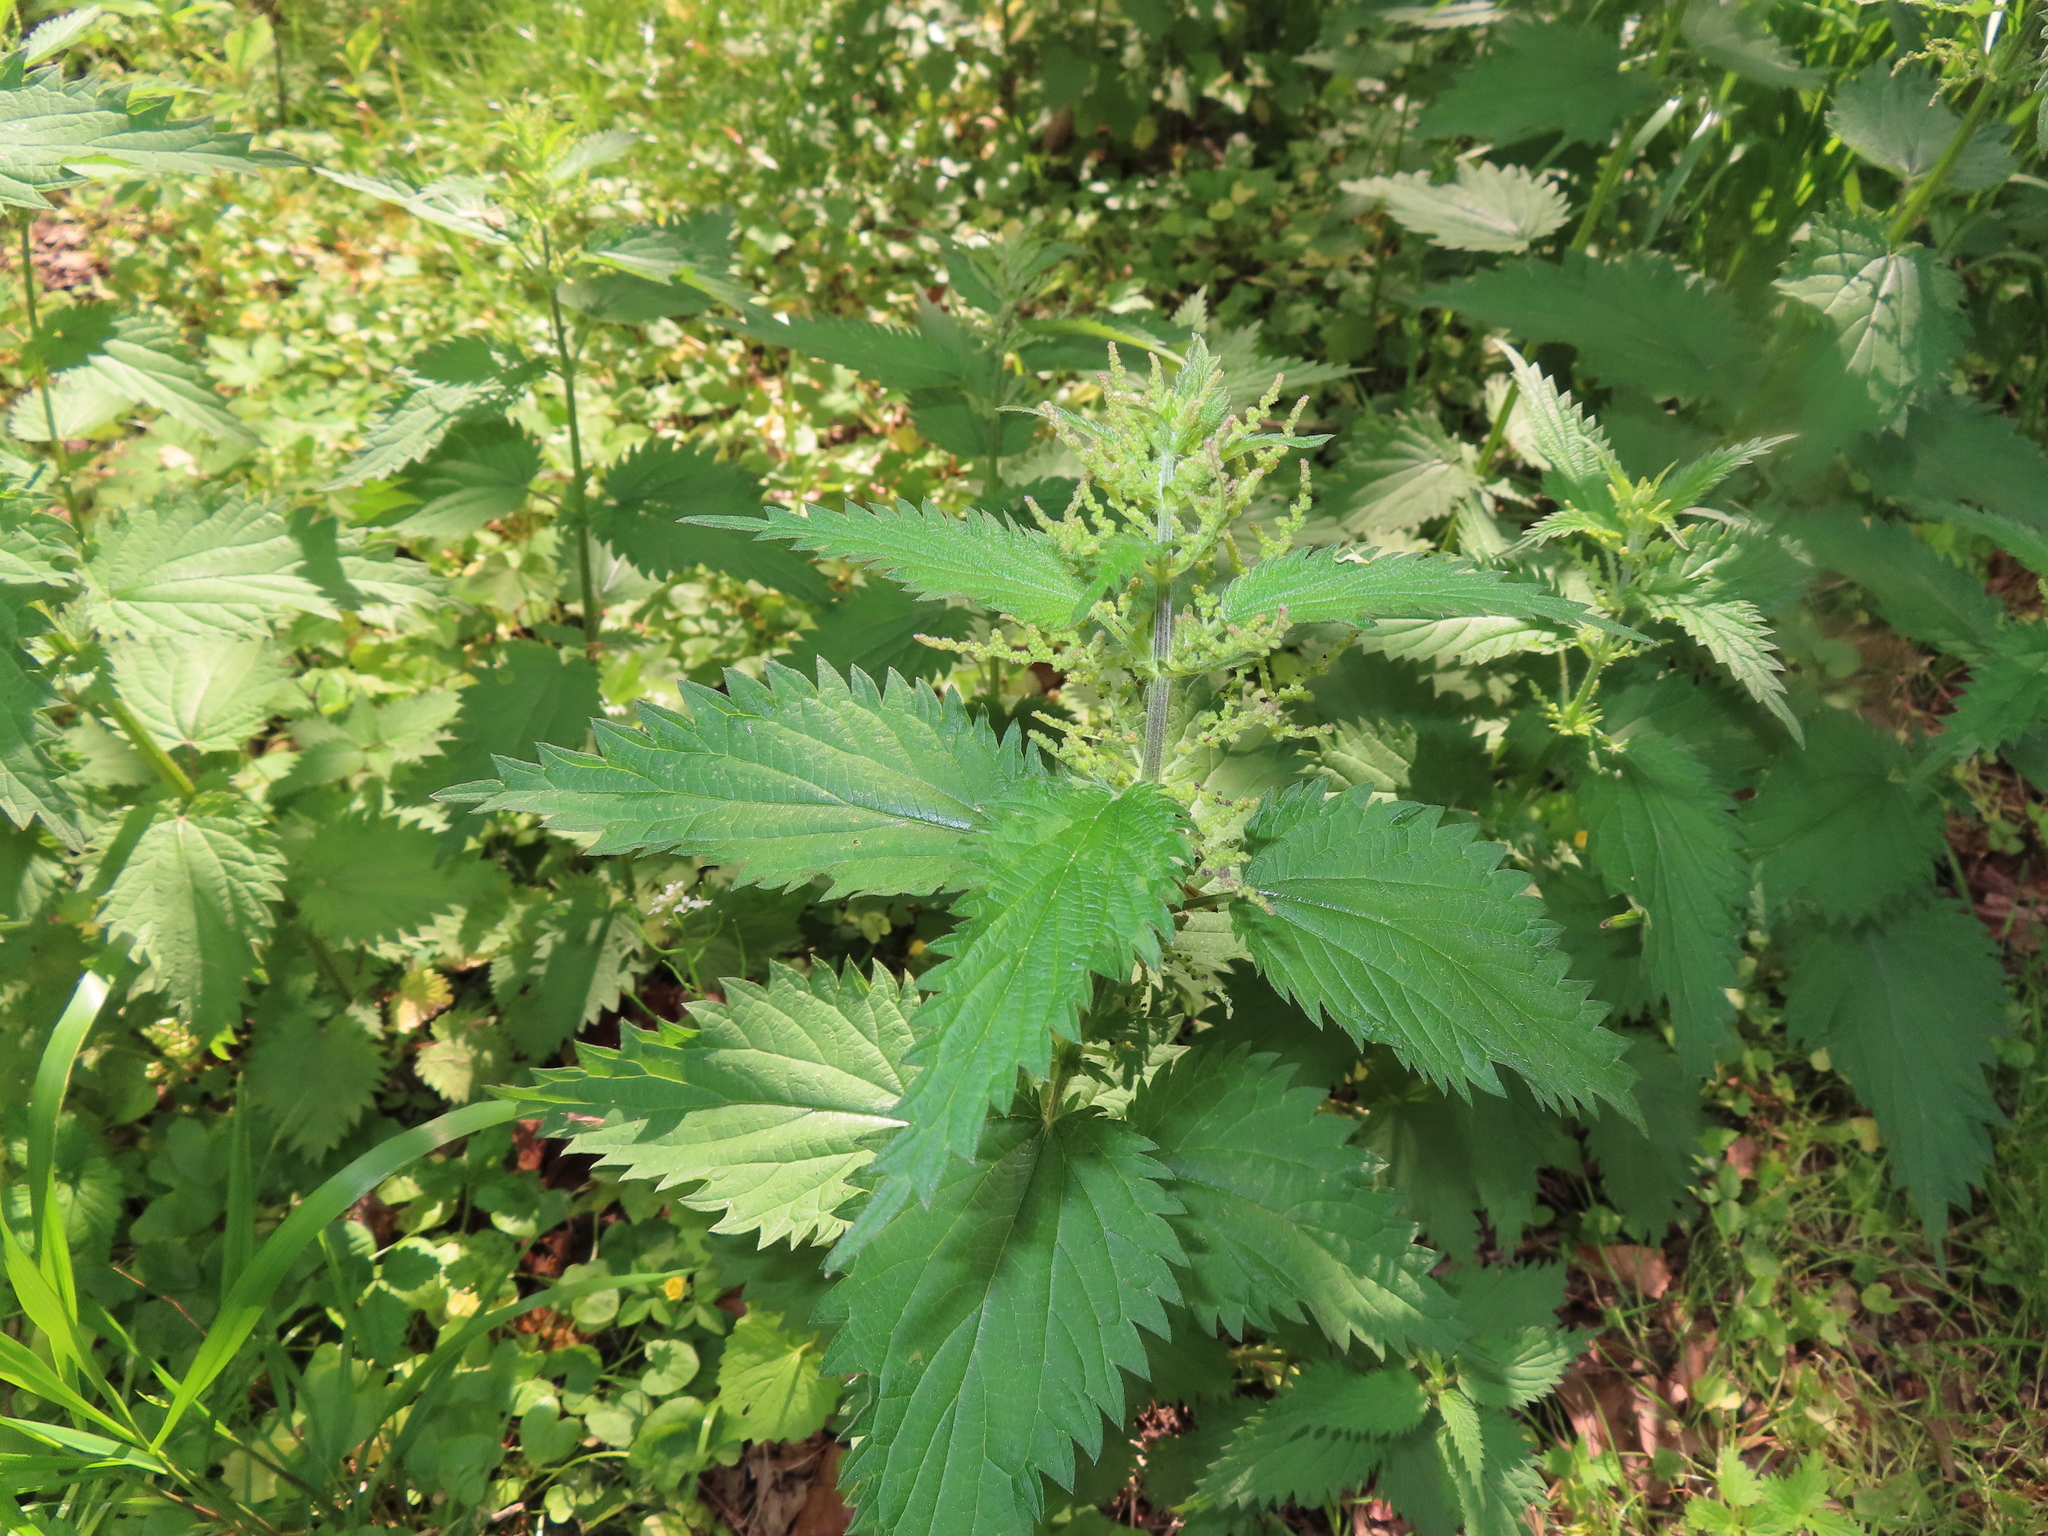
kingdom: Plantae
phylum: Tracheophyta
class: Magnoliopsida
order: Rosales
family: Urticaceae
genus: Urtica
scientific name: Urtica dioica
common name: Common nettle
